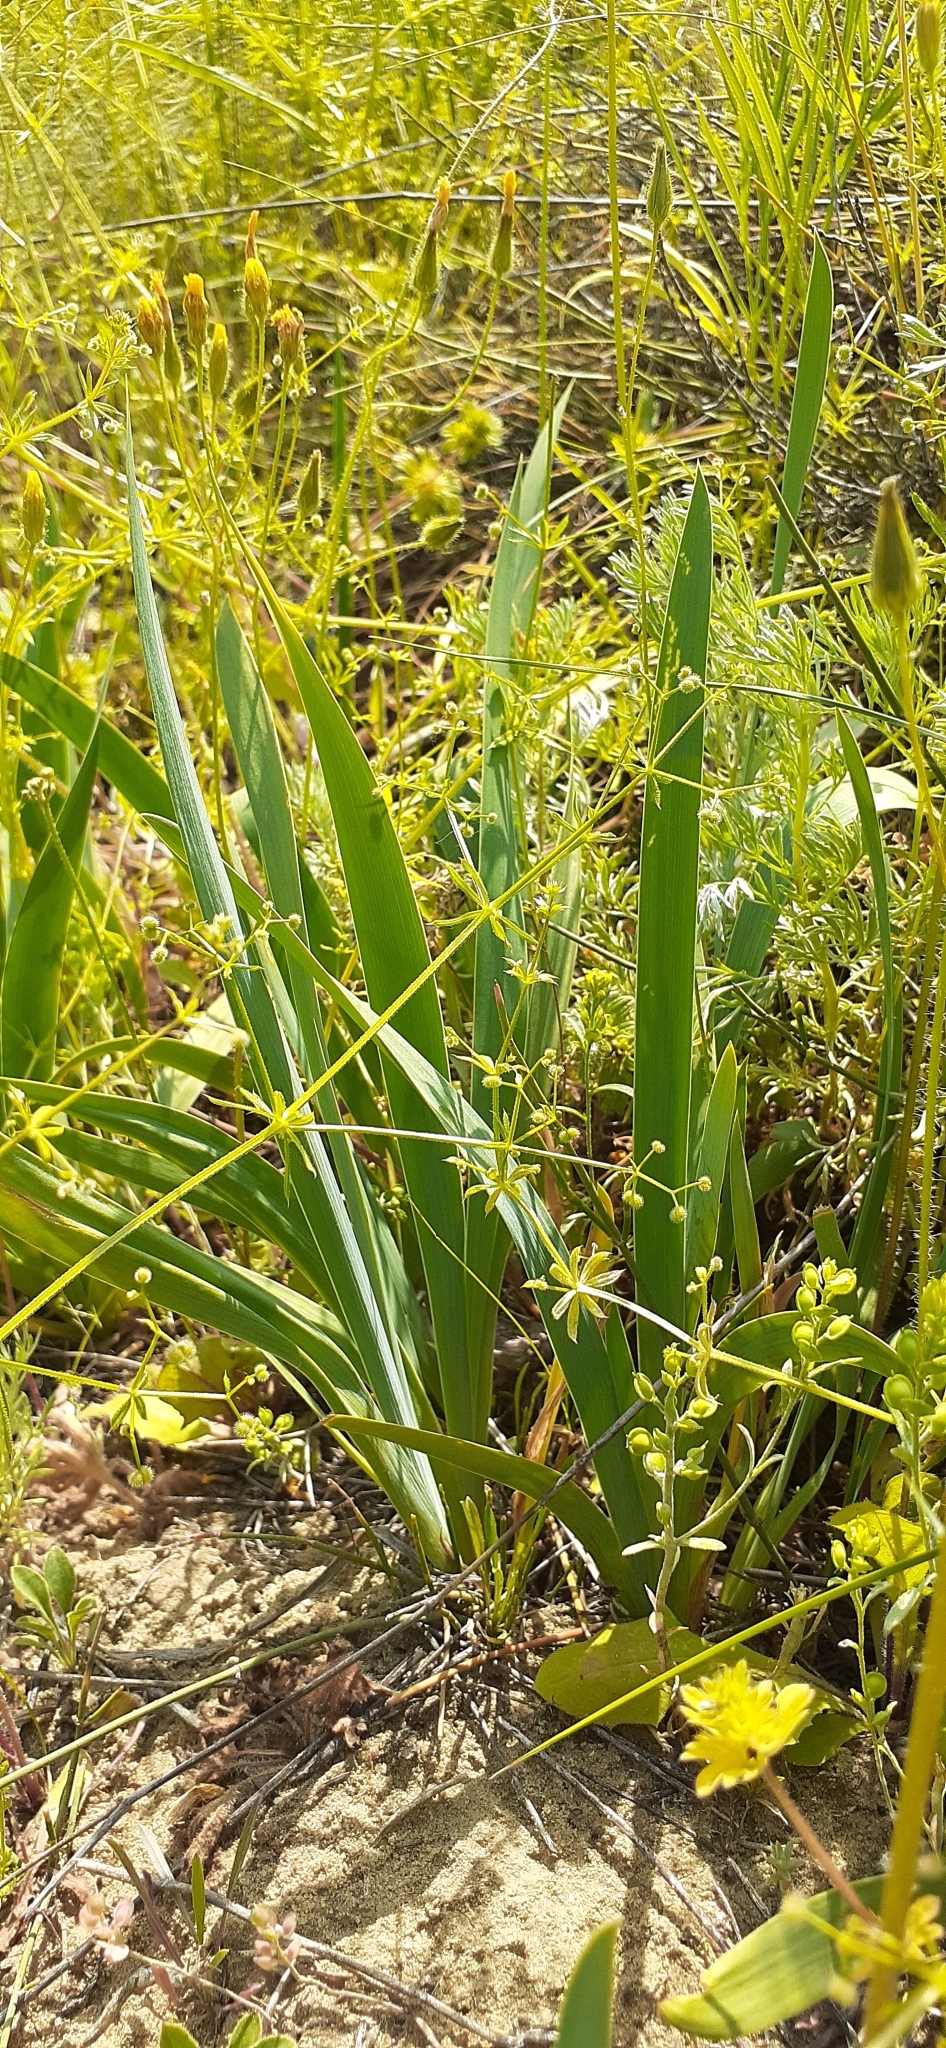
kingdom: Plantae
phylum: Tracheophyta
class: Liliopsida
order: Asparagales
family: Iridaceae
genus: Iris
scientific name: Iris pumila
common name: Dwarf iris
